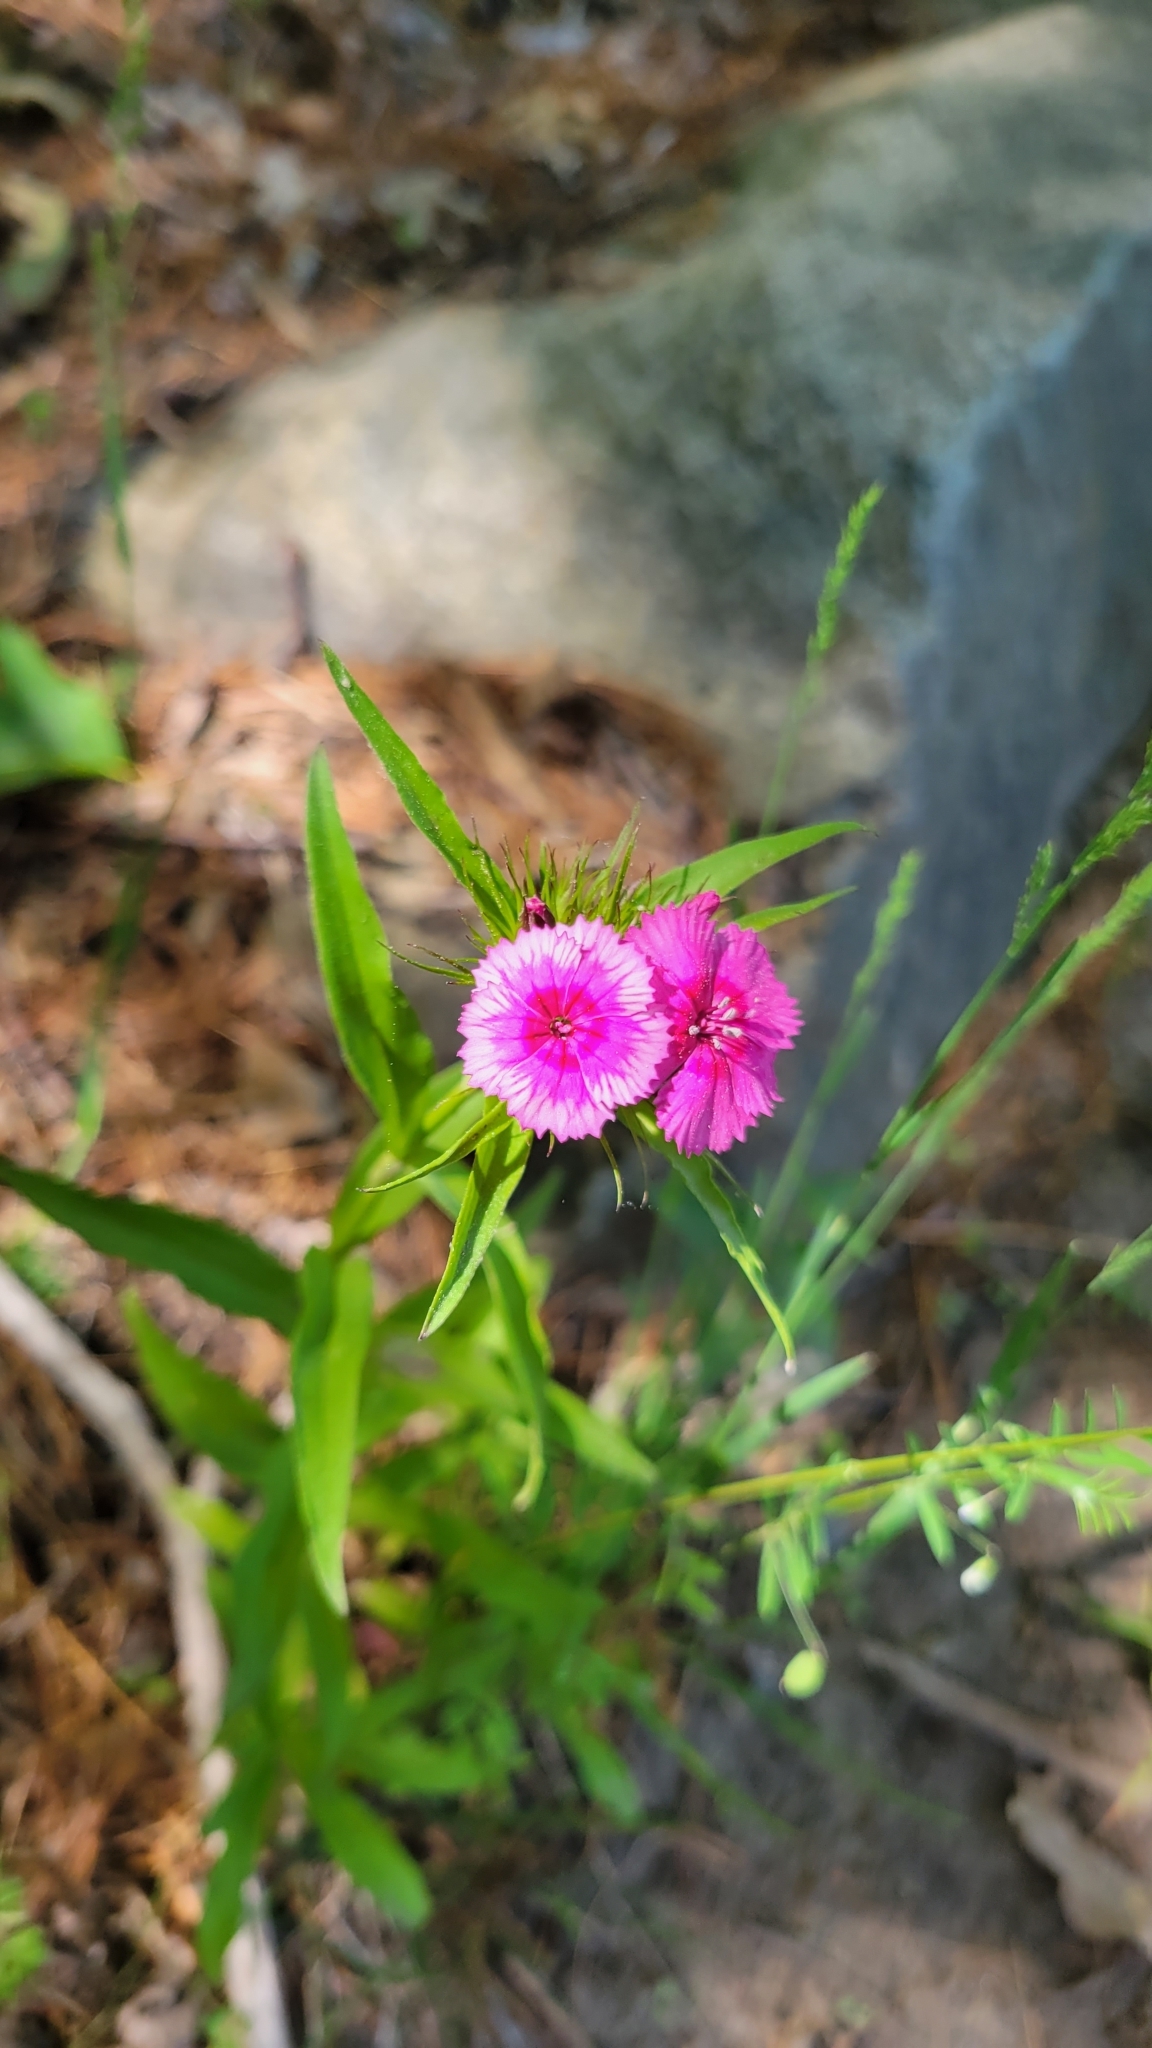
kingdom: Plantae
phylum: Tracheophyta
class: Magnoliopsida
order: Caryophyllales
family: Caryophyllaceae
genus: Dianthus
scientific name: Dianthus barbatus
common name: Sweet-william
